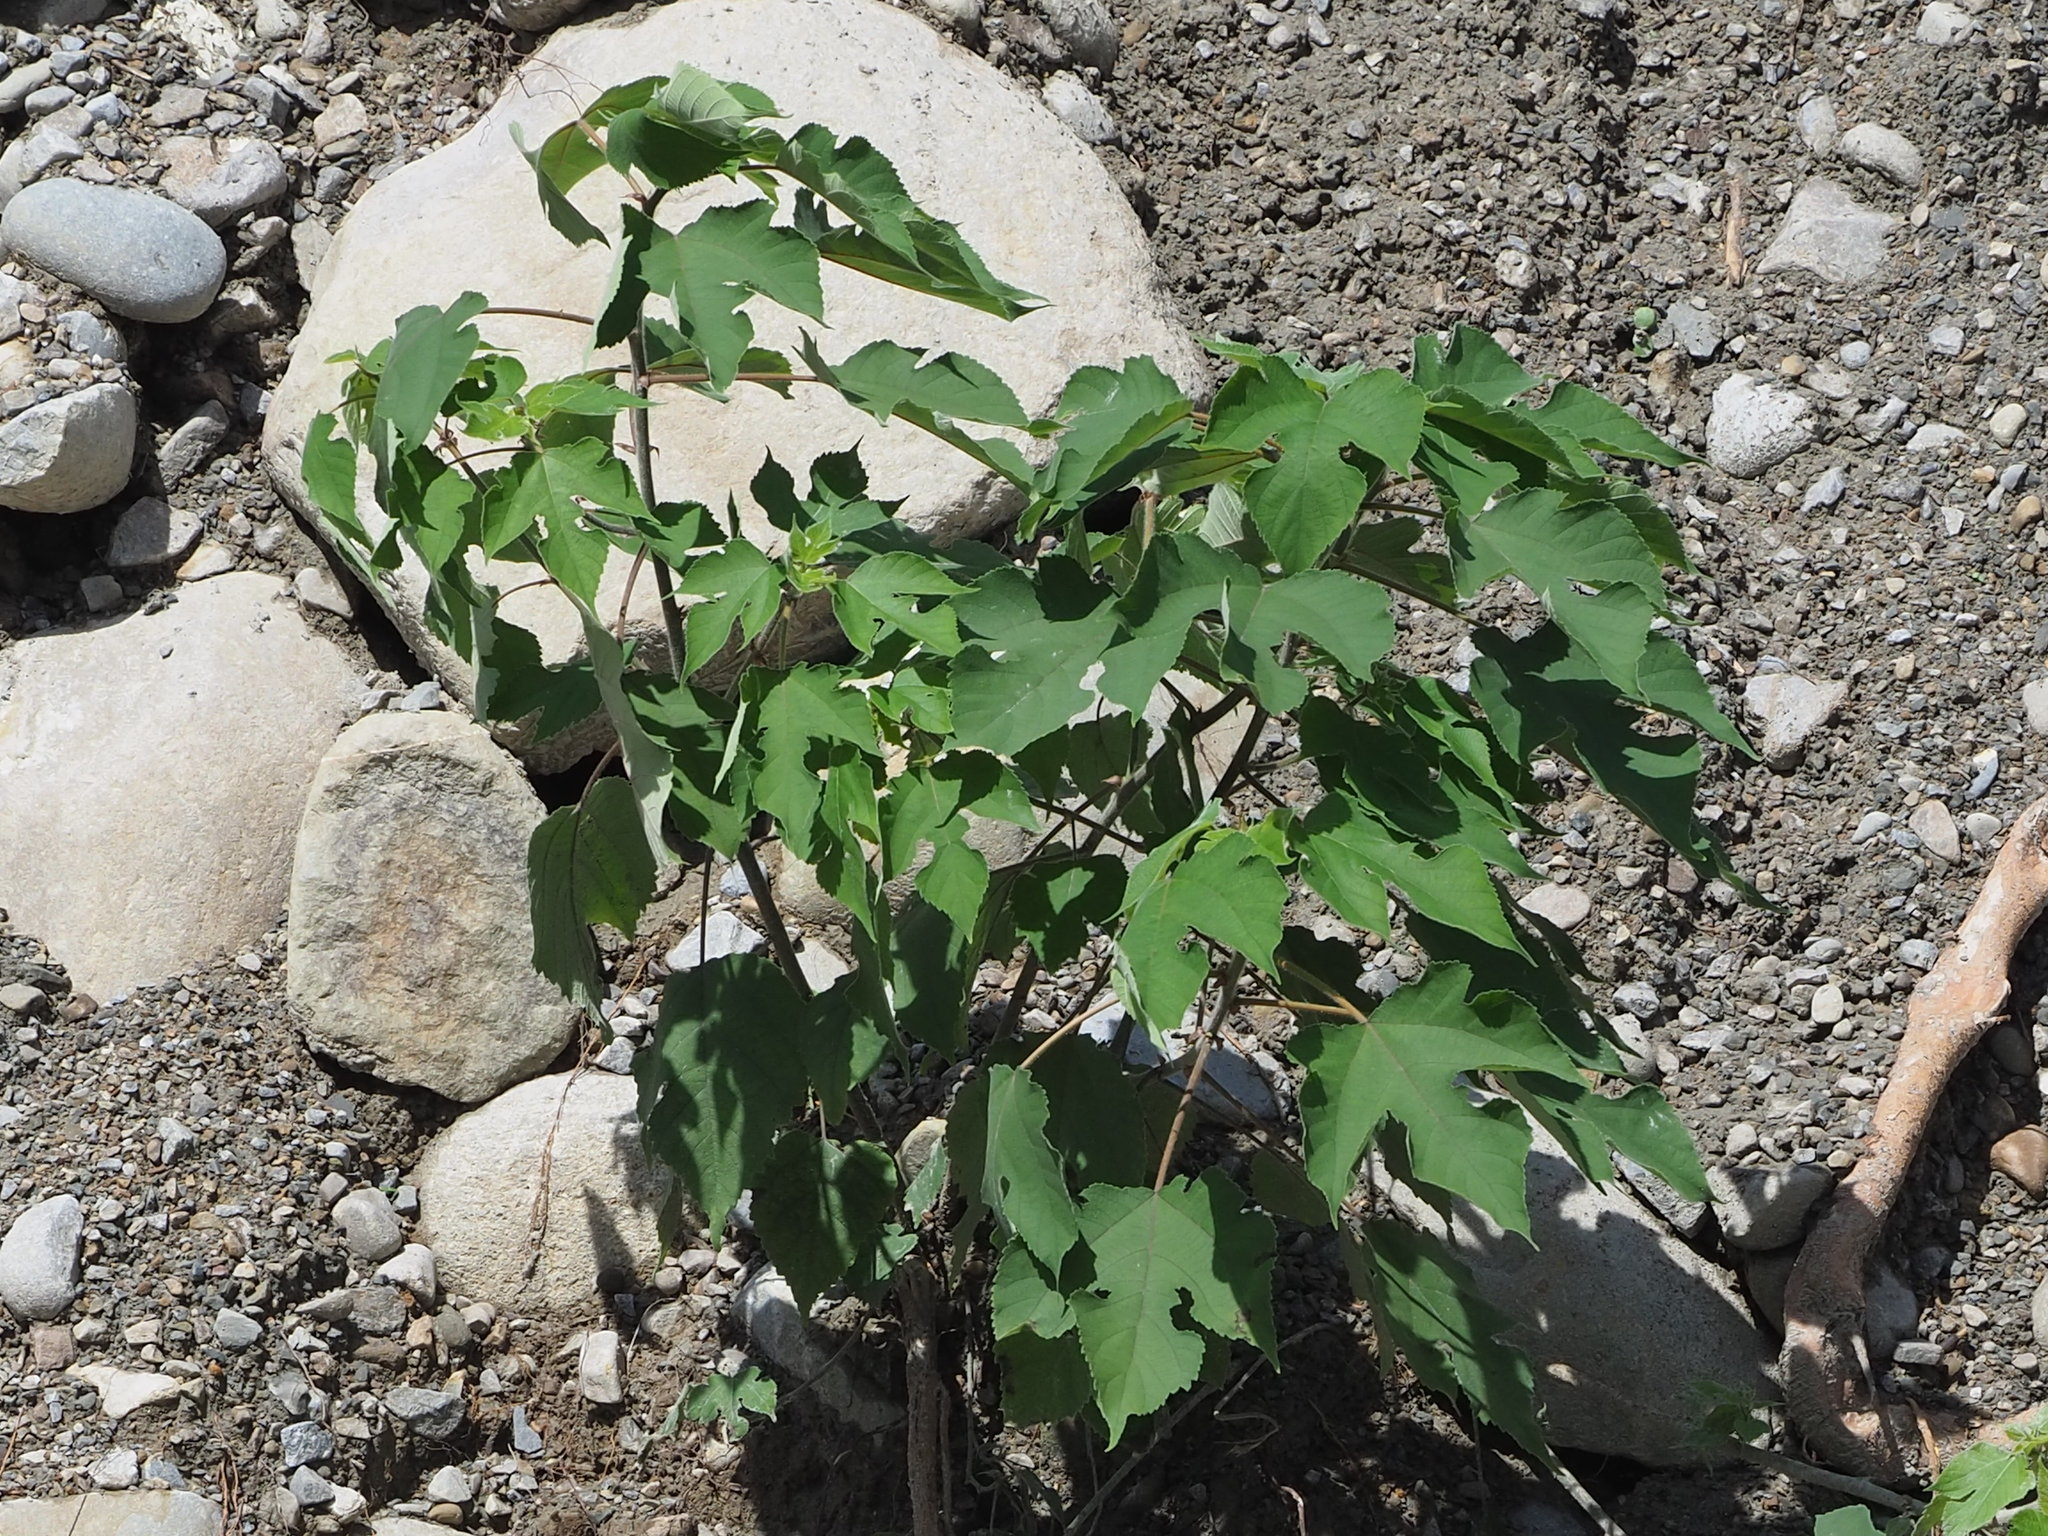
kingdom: Plantae
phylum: Tracheophyta
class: Magnoliopsida
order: Rosales
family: Moraceae
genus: Broussonetia
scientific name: Broussonetia papyrifera
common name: Paper mulberry
